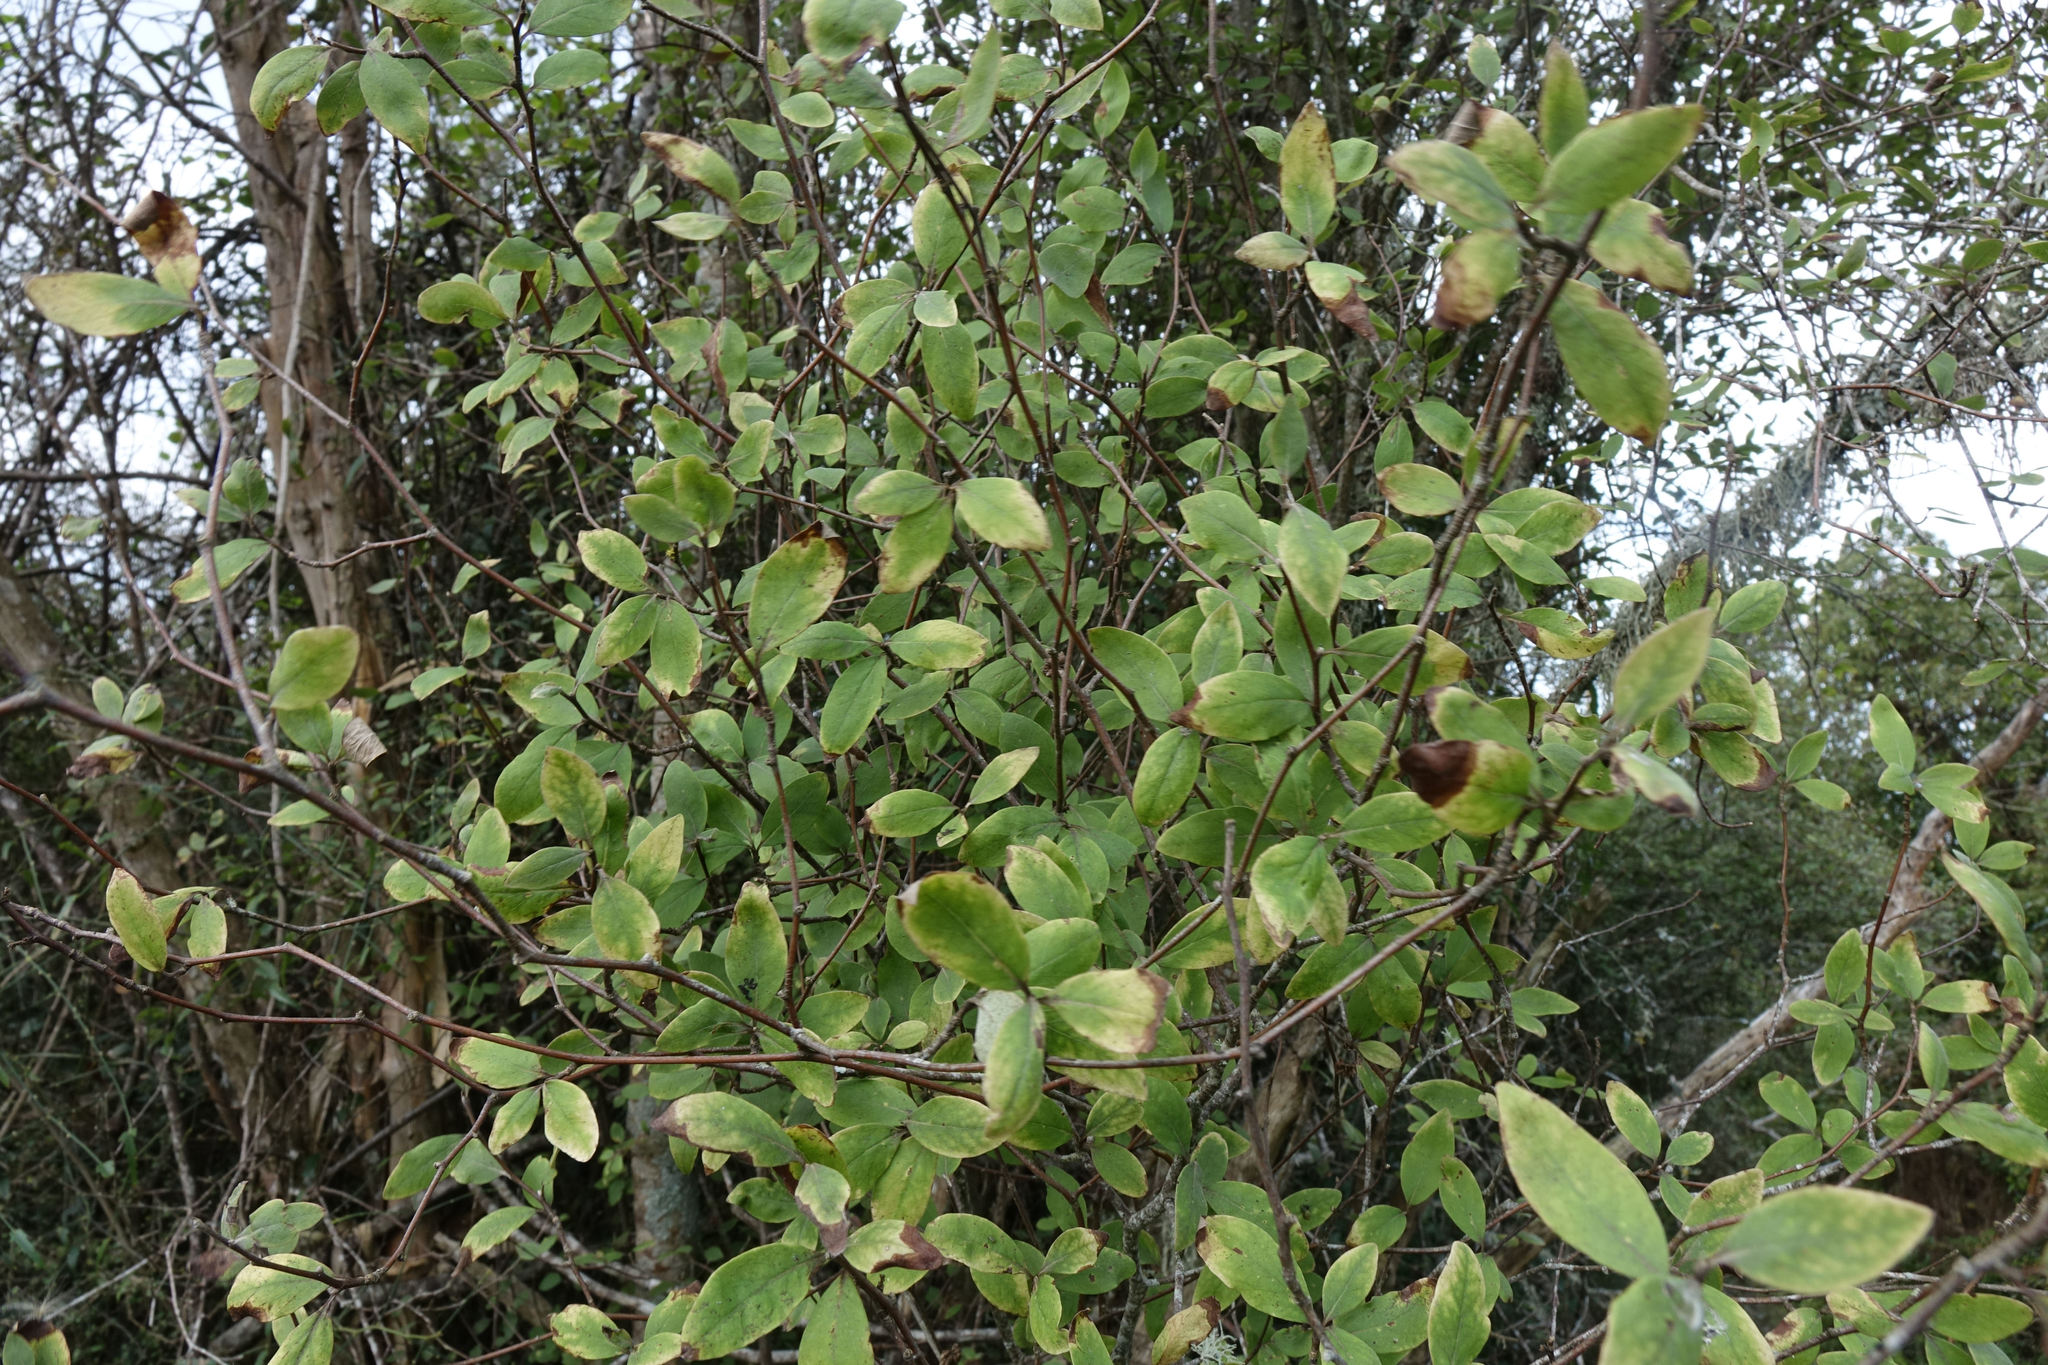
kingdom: Plantae
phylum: Tracheophyta
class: Magnoliopsida
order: Asterales
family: Asteraceae
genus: Olearia
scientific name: Olearia fragrantissima
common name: Fragrant tree daisy
